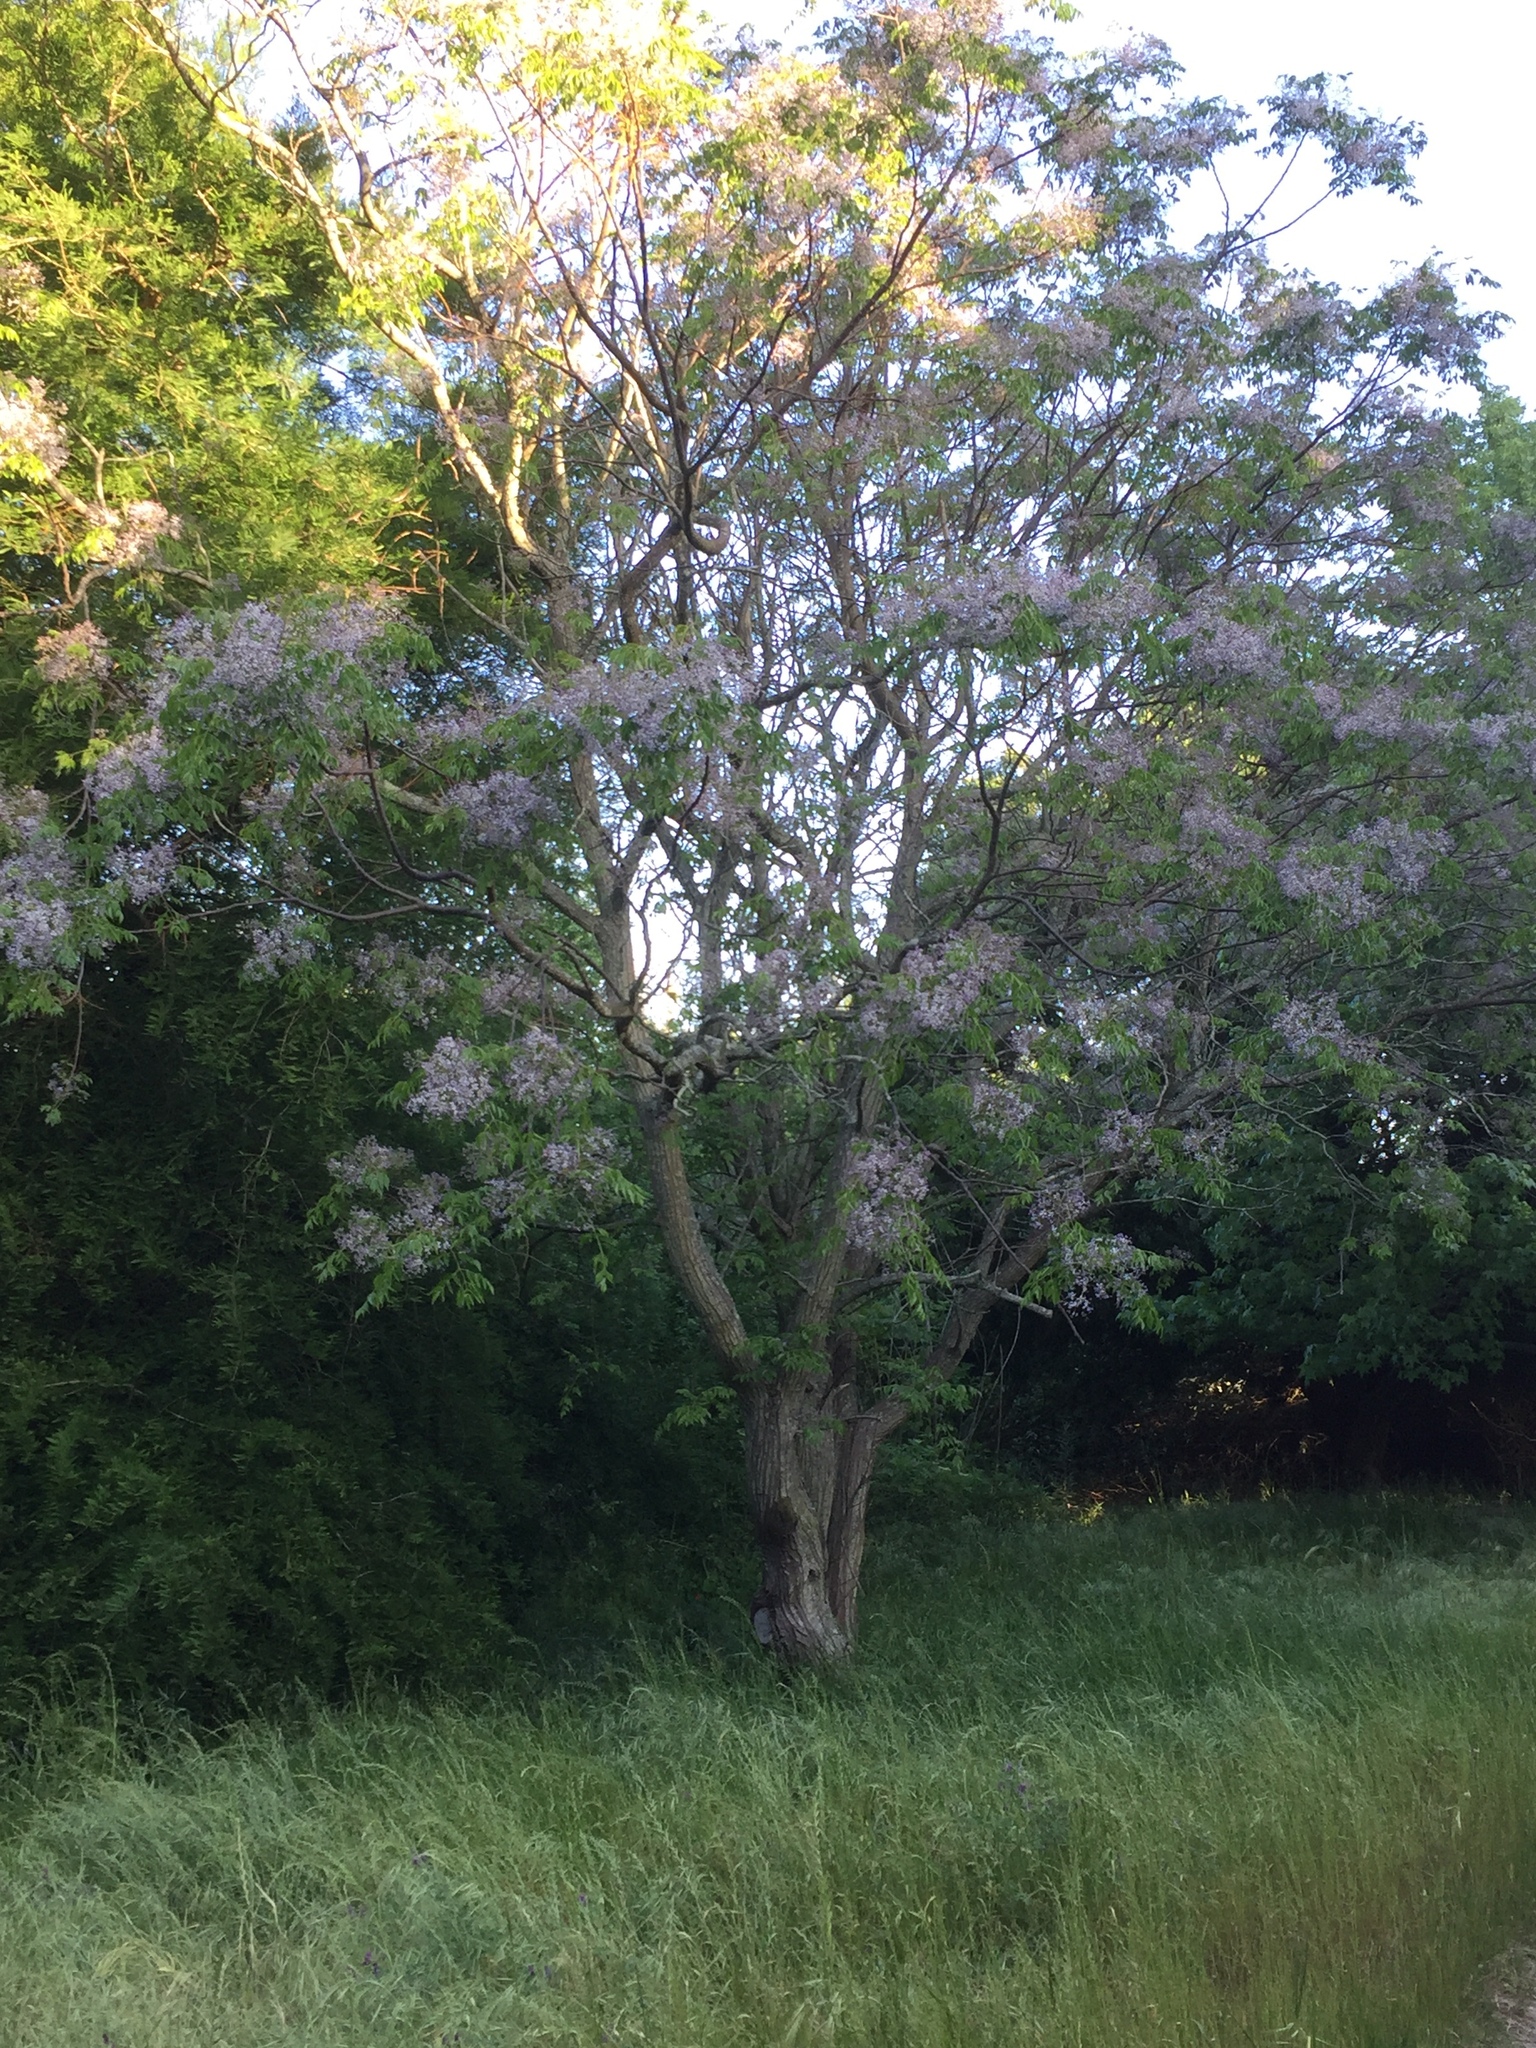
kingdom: Plantae
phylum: Tracheophyta
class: Magnoliopsida
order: Sapindales
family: Meliaceae
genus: Melia
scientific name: Melia azedarach
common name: Chinaberrytree
